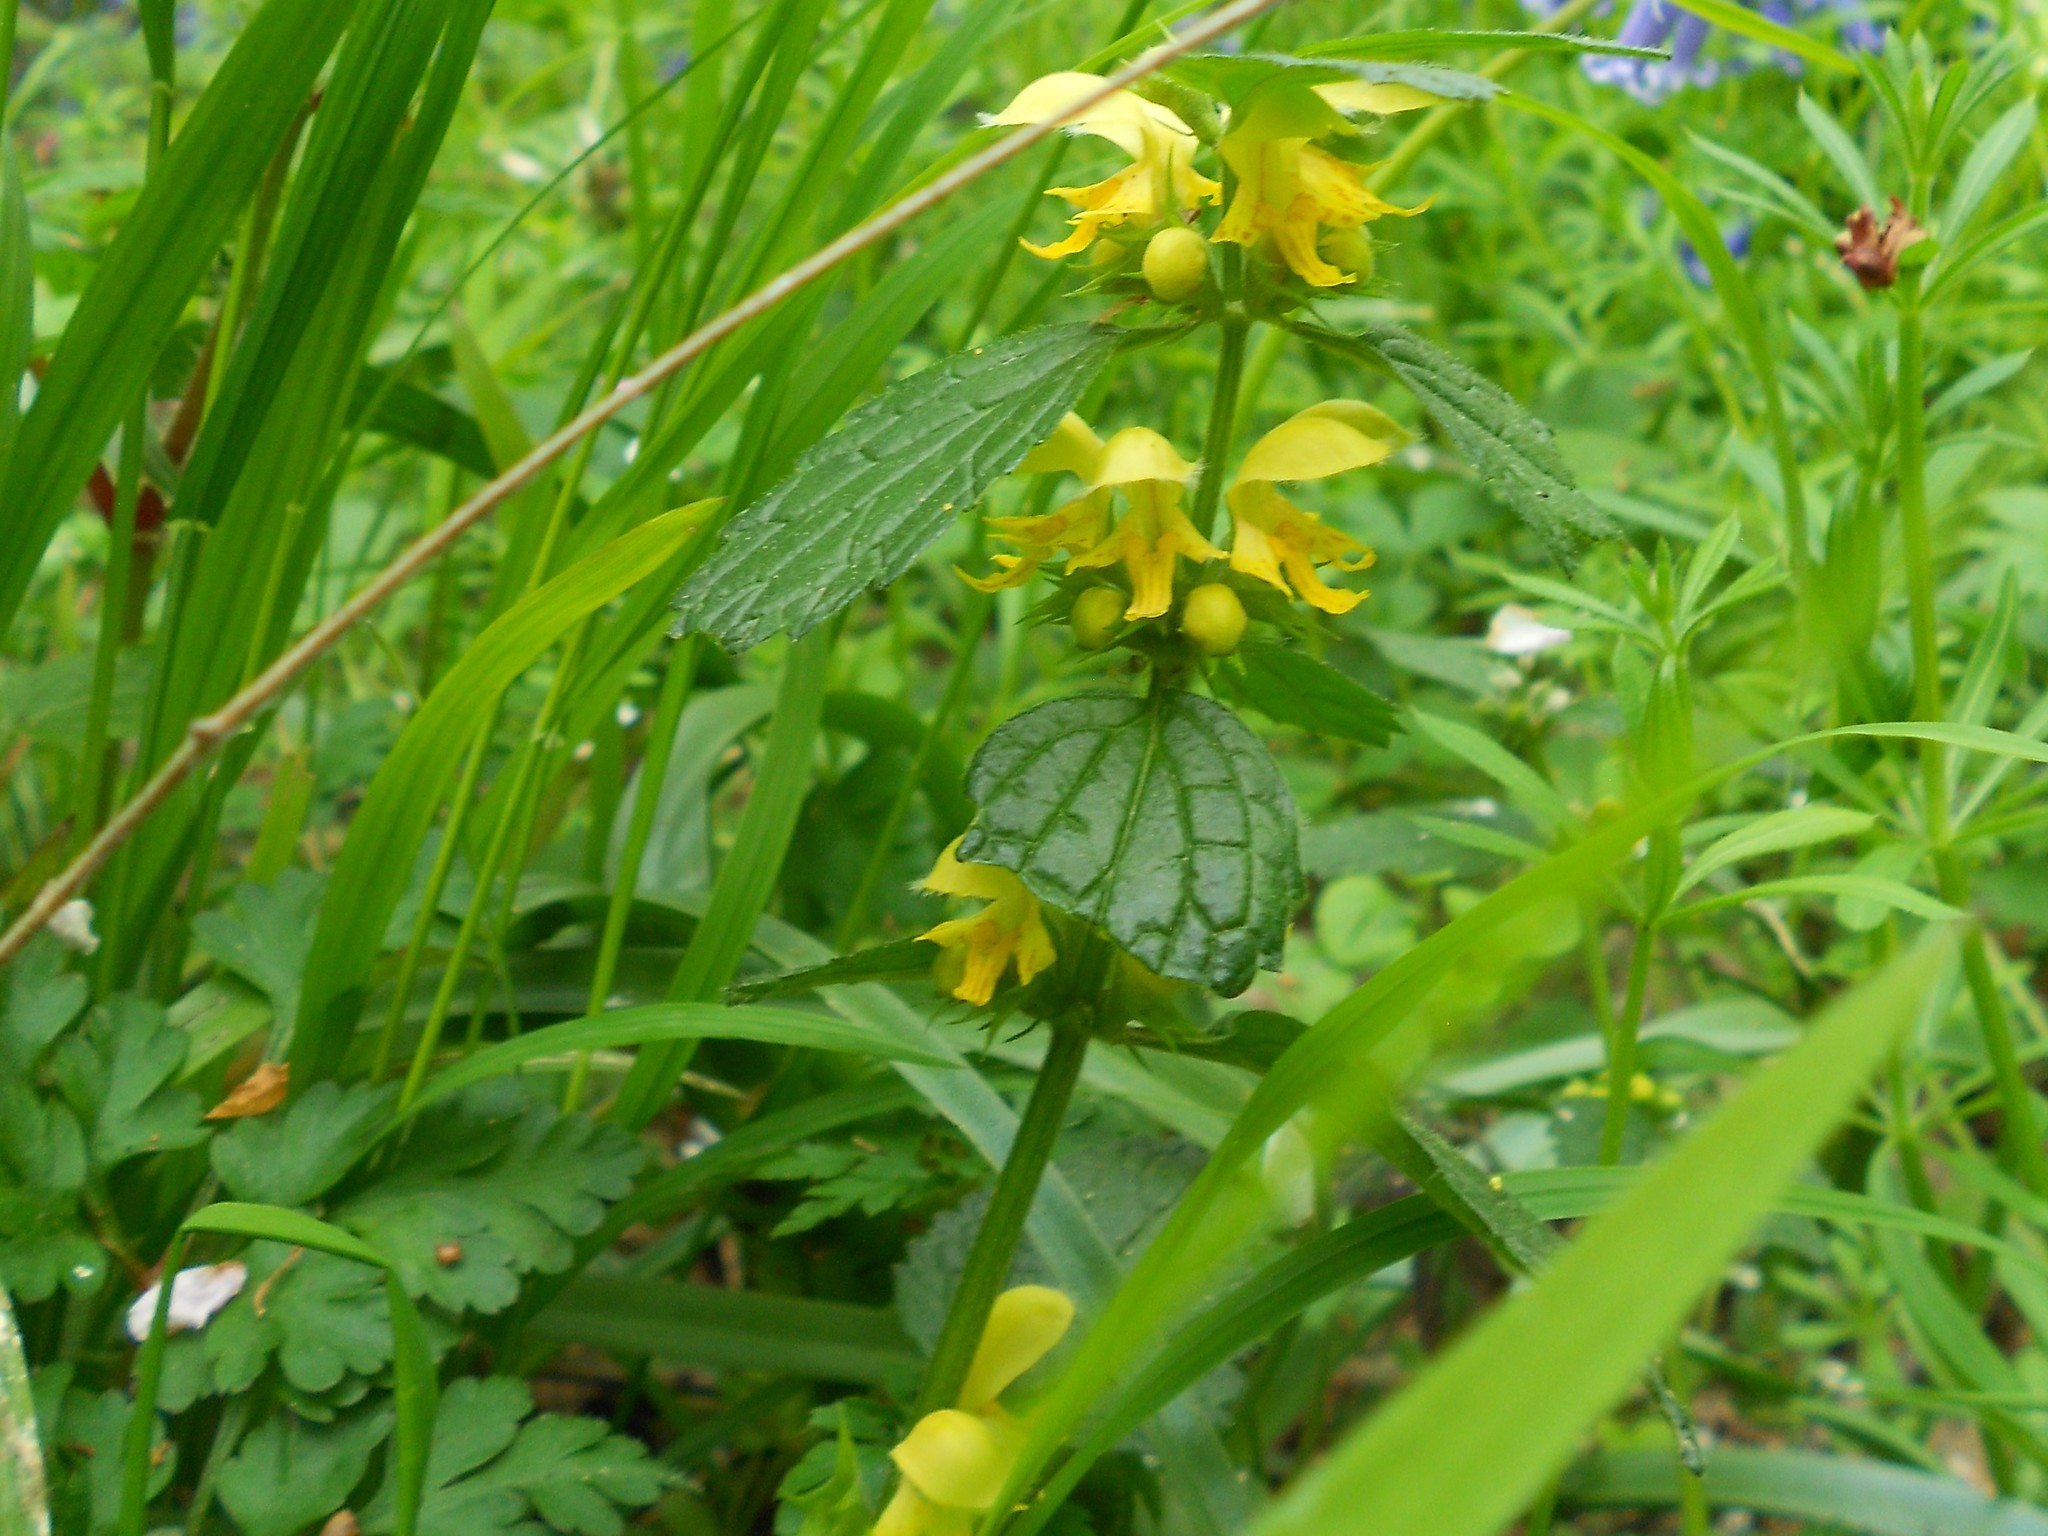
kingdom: Plantae
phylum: Tracheophyta
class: Magnoliopsida
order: Lamiales
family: Lamiaceae
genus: Lamium
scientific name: Lamium galeobdolon
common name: Yellow archangel
